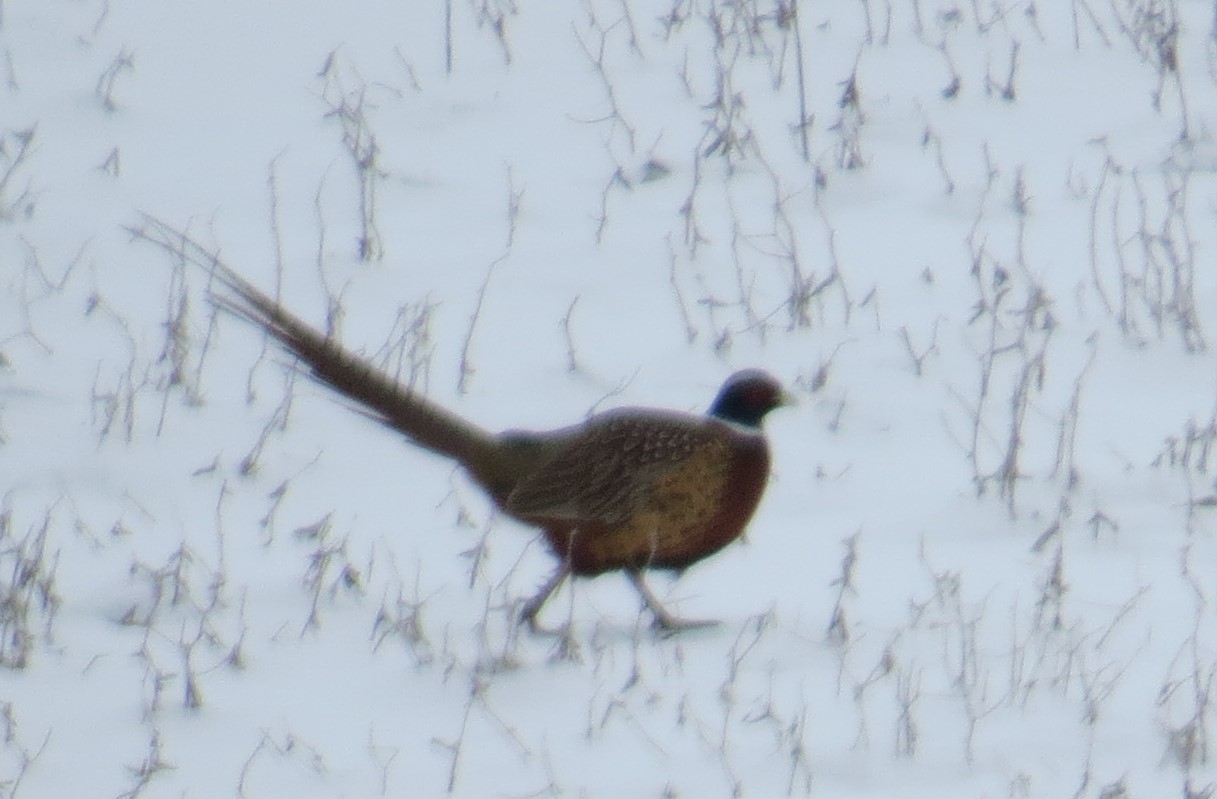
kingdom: Animalia
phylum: Chordata
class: Aves
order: Galliformes
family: Phasianidae
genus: Phasianus
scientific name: Phasianus colchicus
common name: Common pheasant
